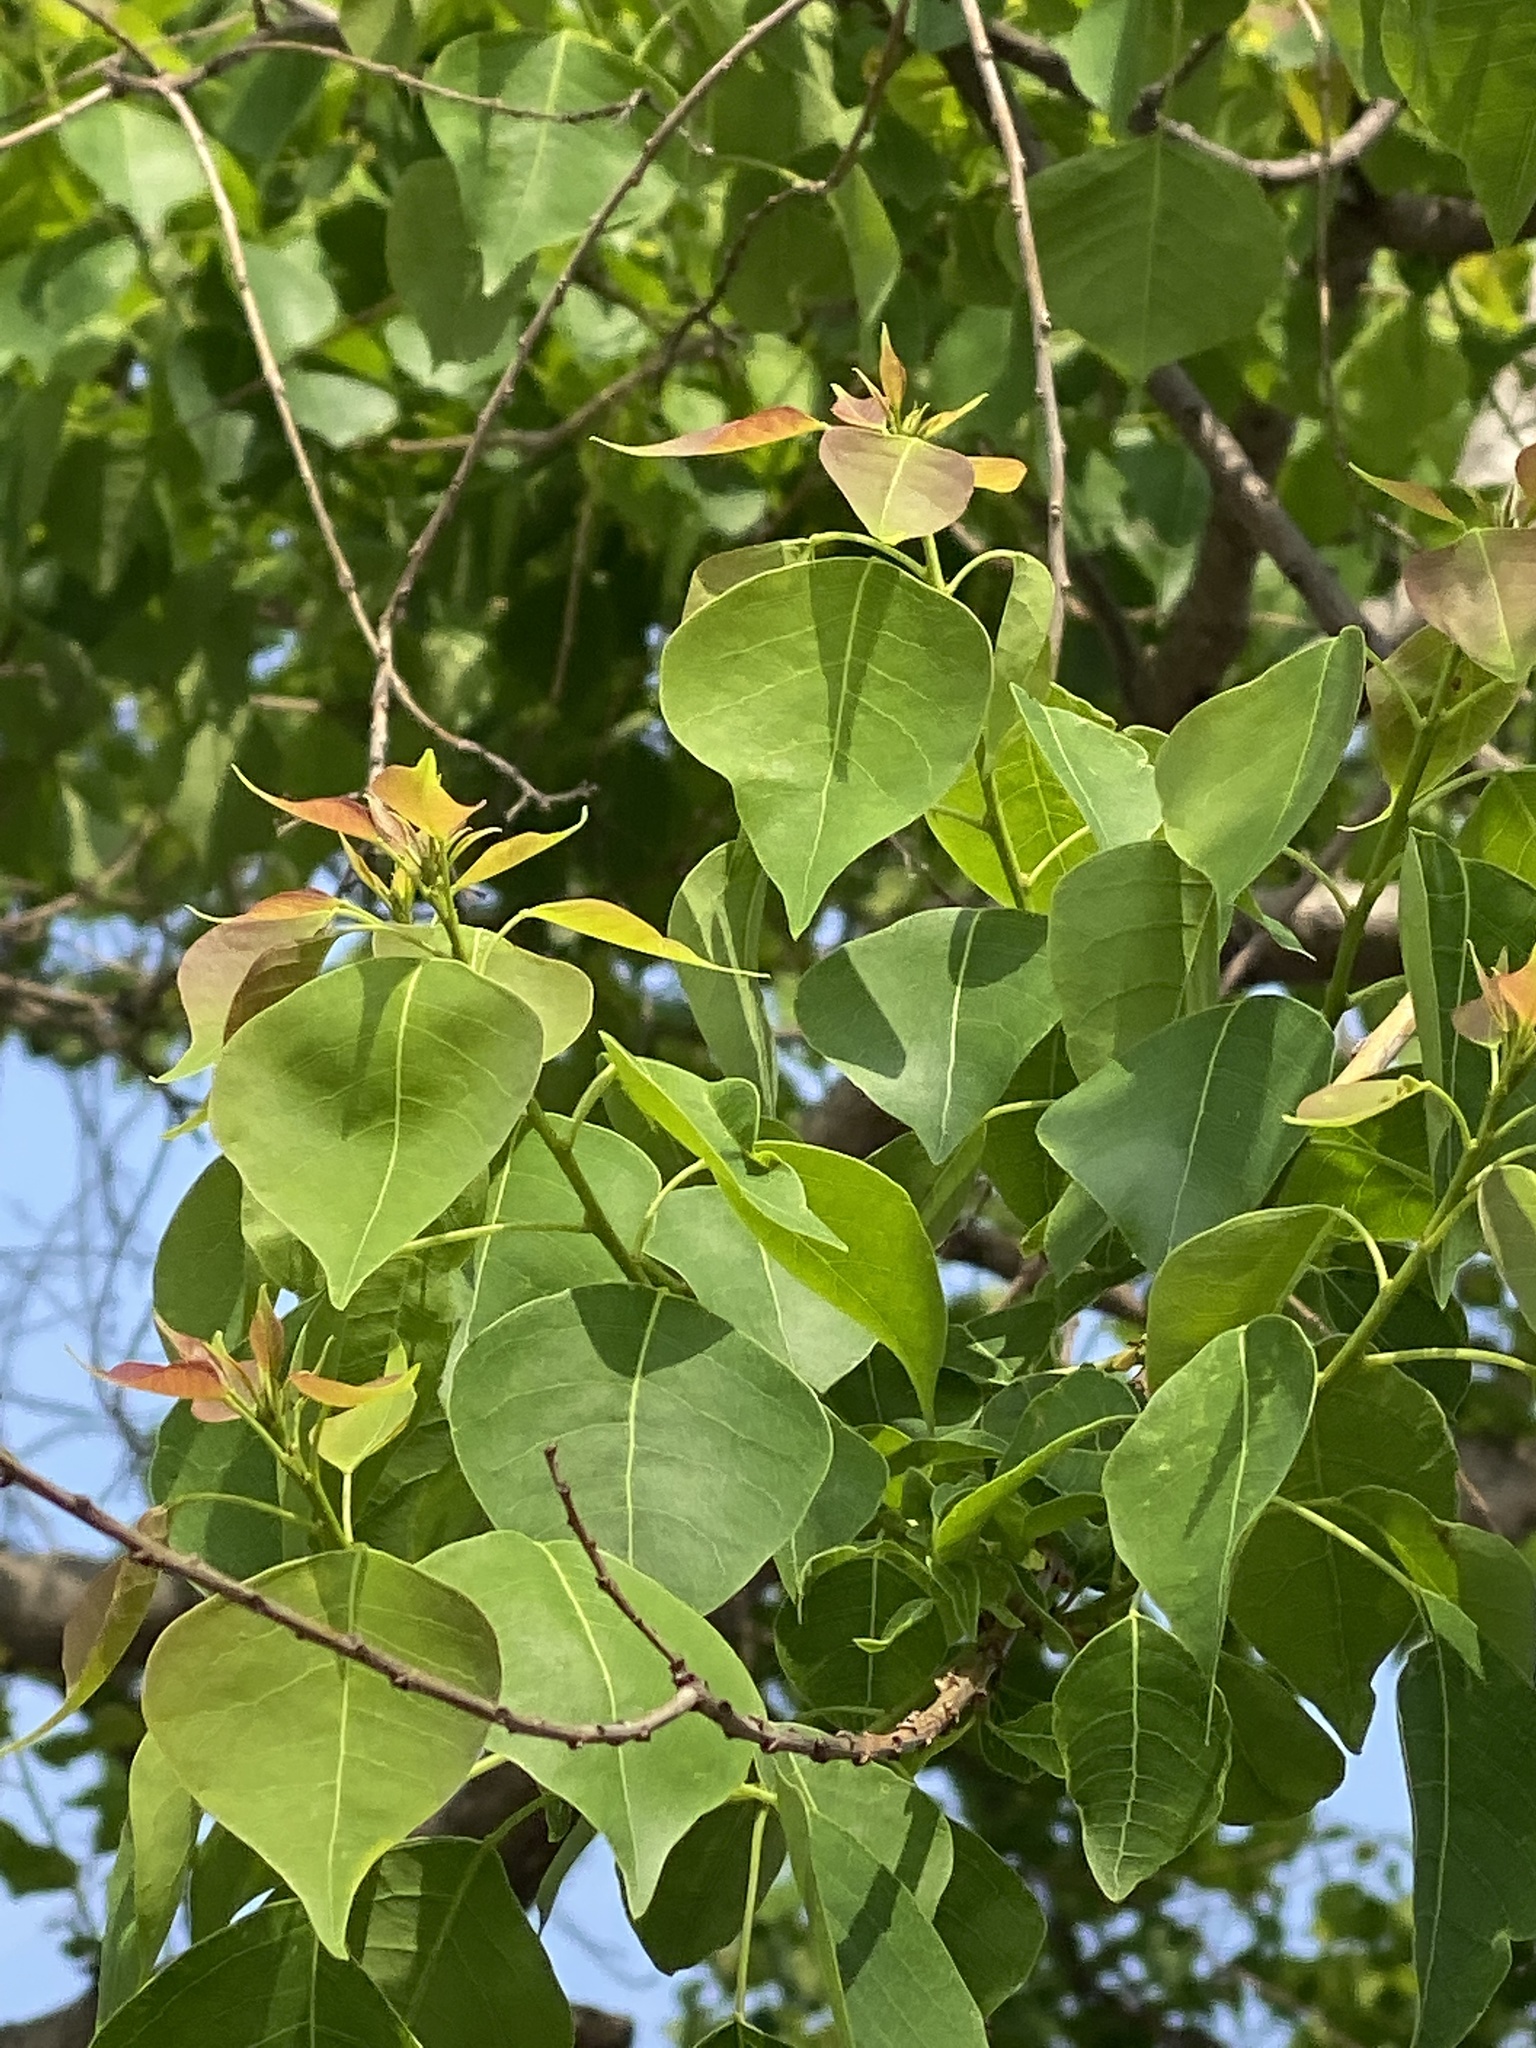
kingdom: Plantae
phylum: Tracheophyta
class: Magnoliopsida
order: Malpighiales
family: Euphorbiaceae
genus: Triadica
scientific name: Triadica sebifera
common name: Chinese tallow
